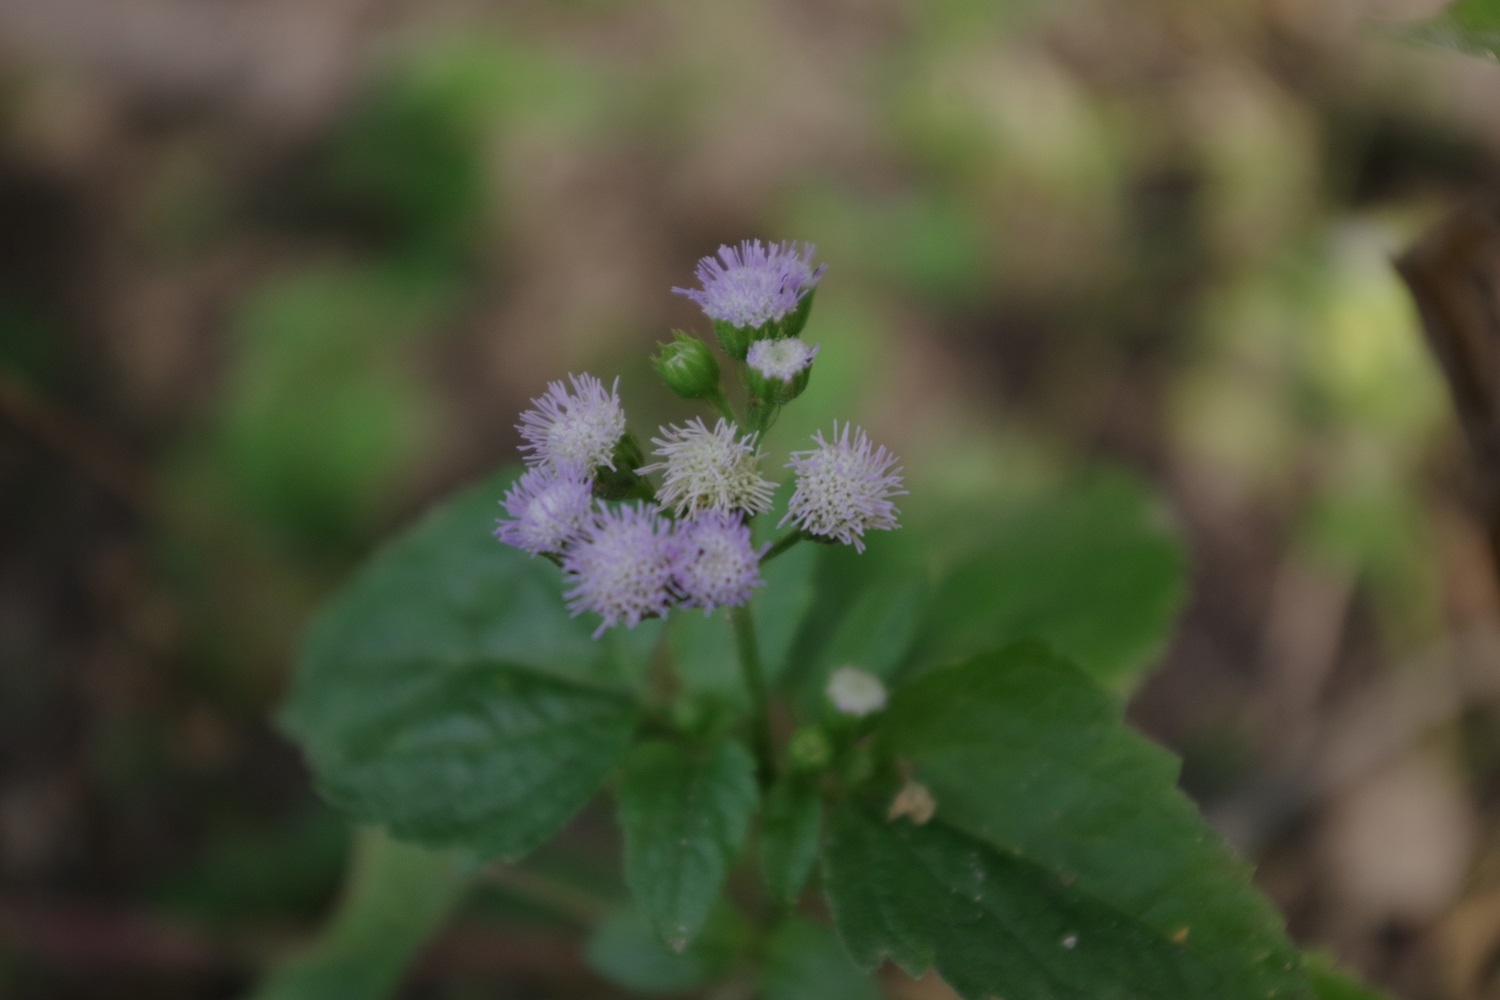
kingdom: Plantae
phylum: Tracheophyta
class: Magnoliopsida
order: Asterales
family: Asteraceae
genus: Ageratum
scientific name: Ageratum conyzoides
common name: Tropical whiteweed
